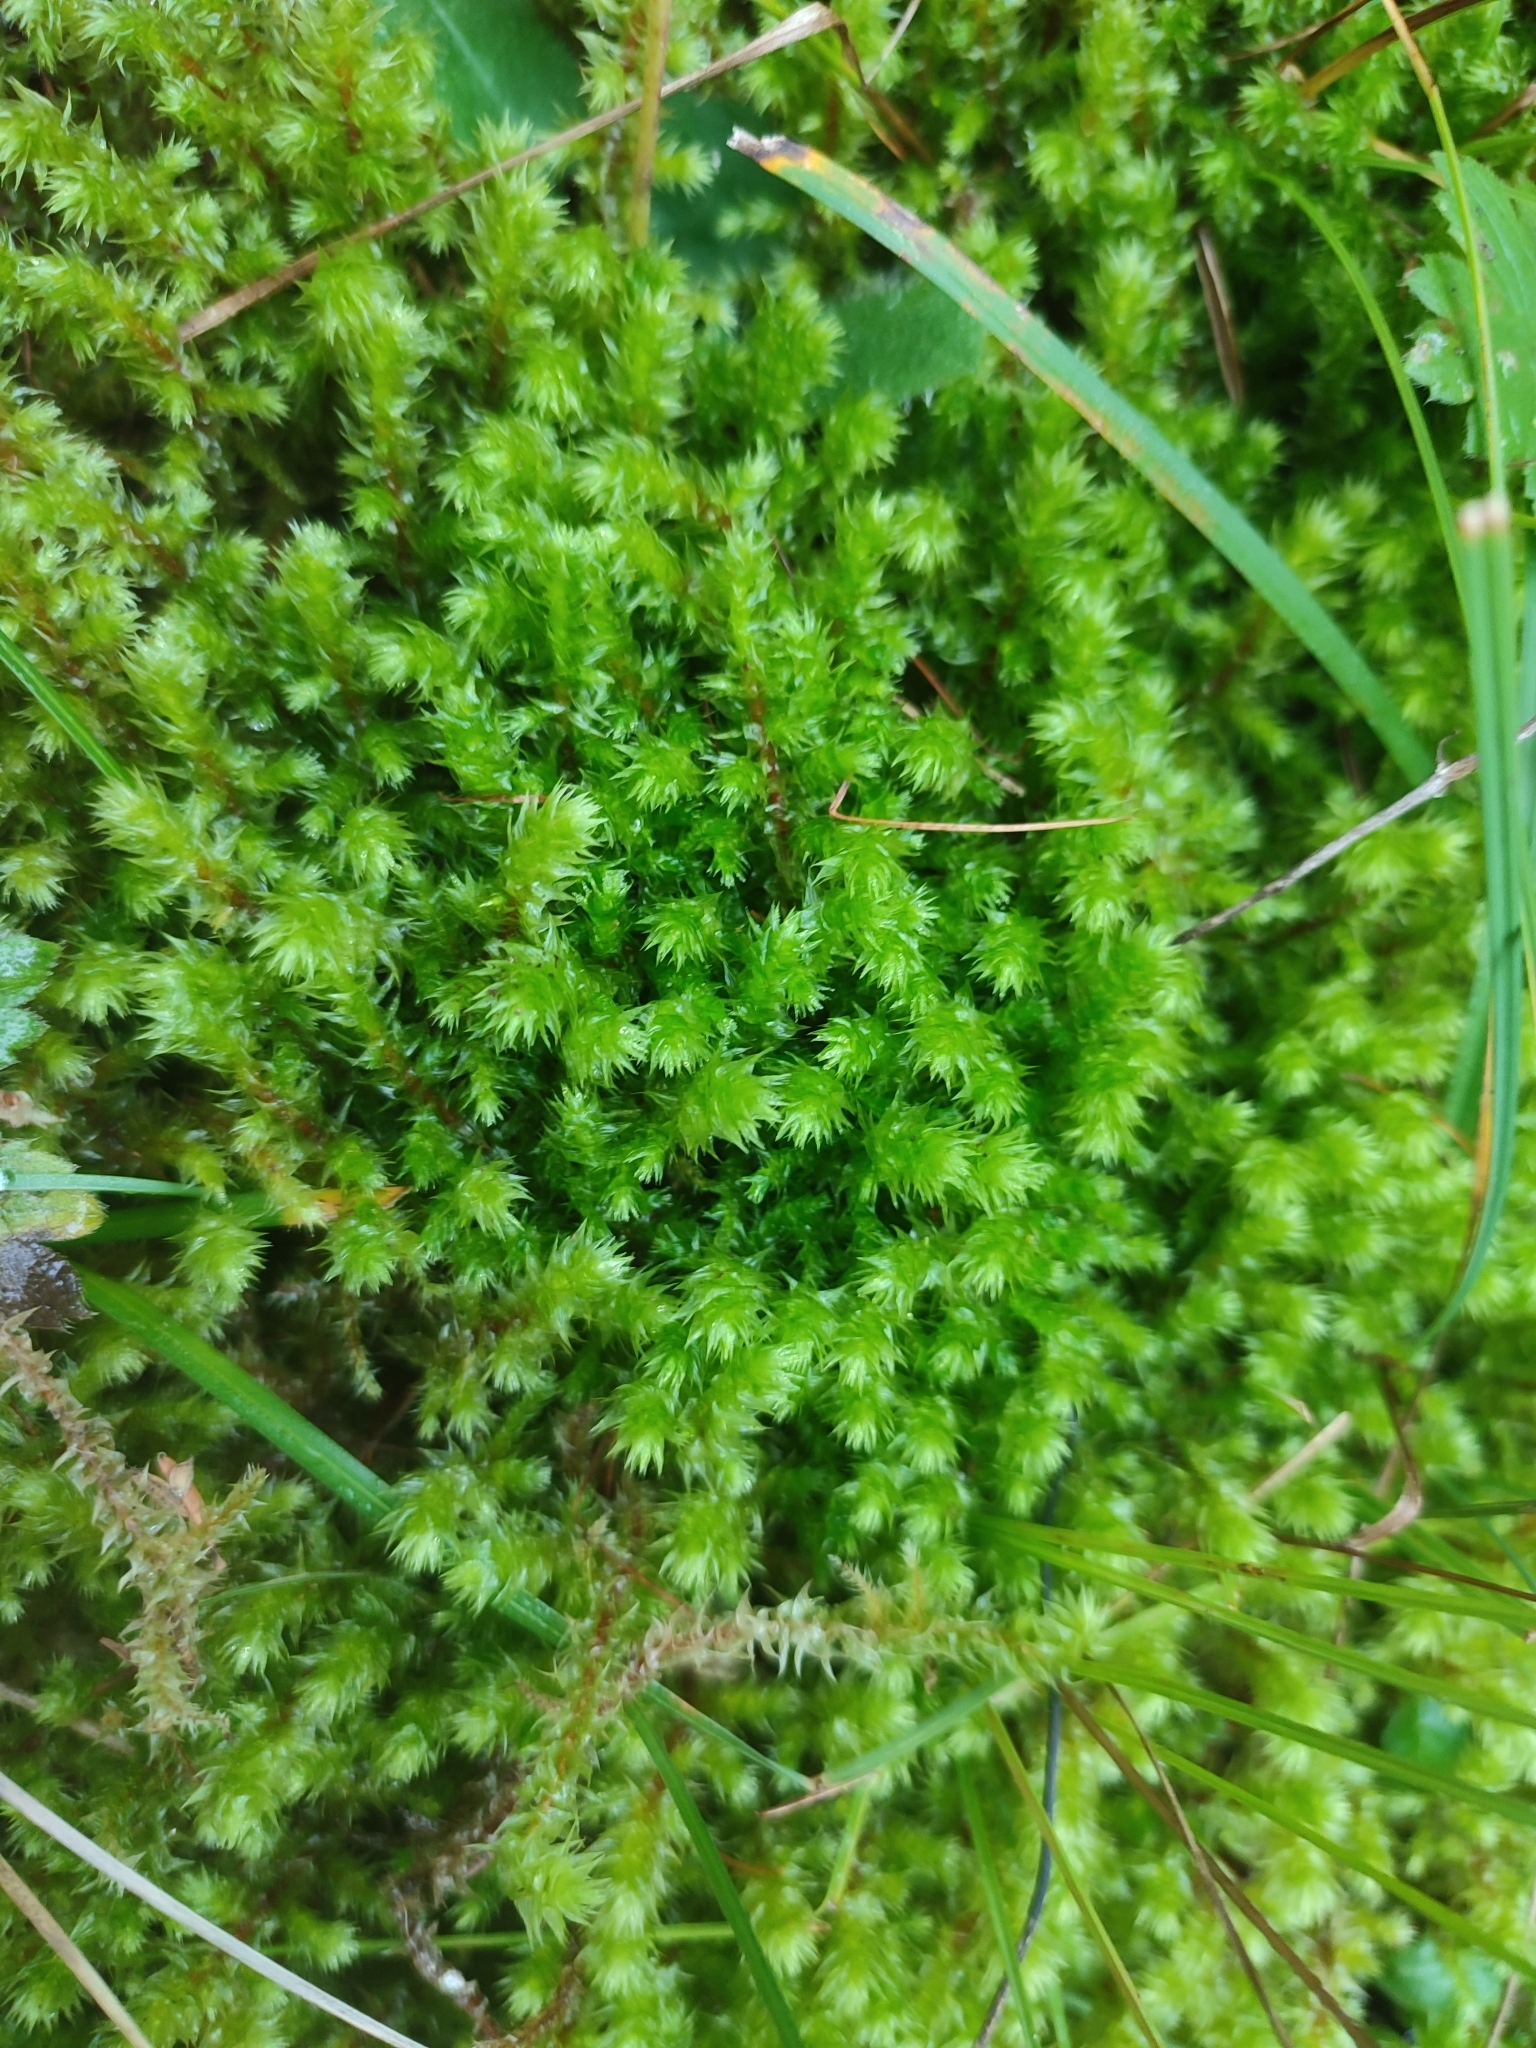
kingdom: Plantae
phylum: Bryophyta
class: Bryopsida
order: Hypnales
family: Hylocomiaceae
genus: Hylocomiadelphus
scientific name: Hylocomiadelphus triquetrus
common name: Rough goose neck moss
